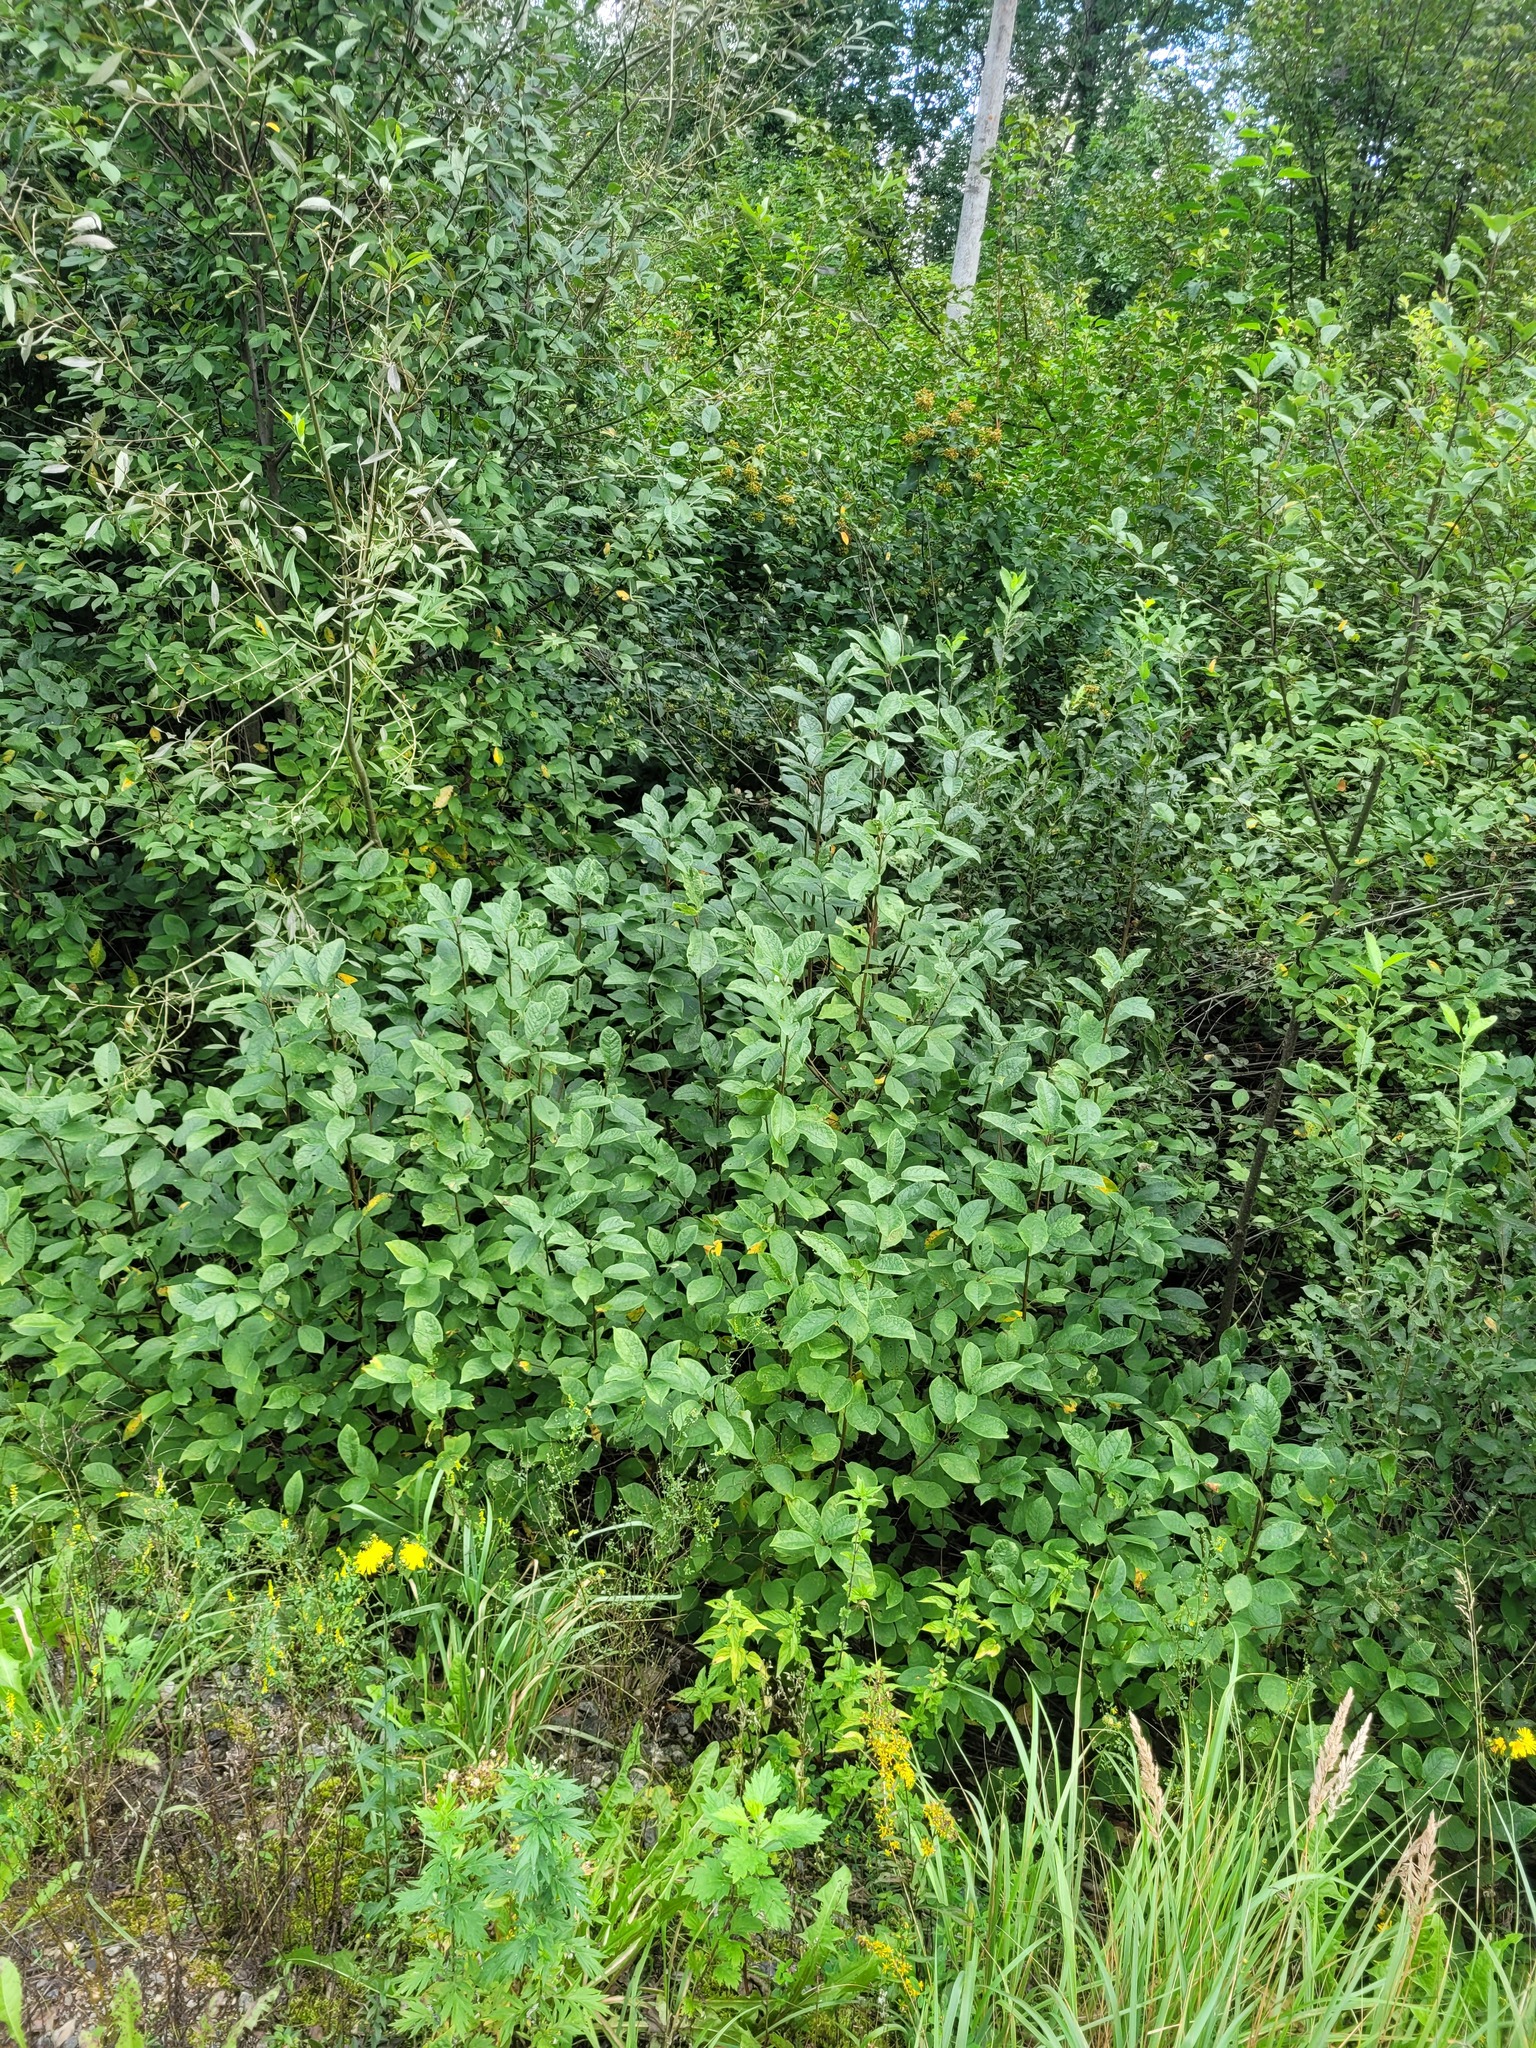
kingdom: Plantae
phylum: Tracheophyta
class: Magnoliopsida
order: Rosales
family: Rosaceae
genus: Prunus
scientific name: Prunus padus
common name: Bird cherry
